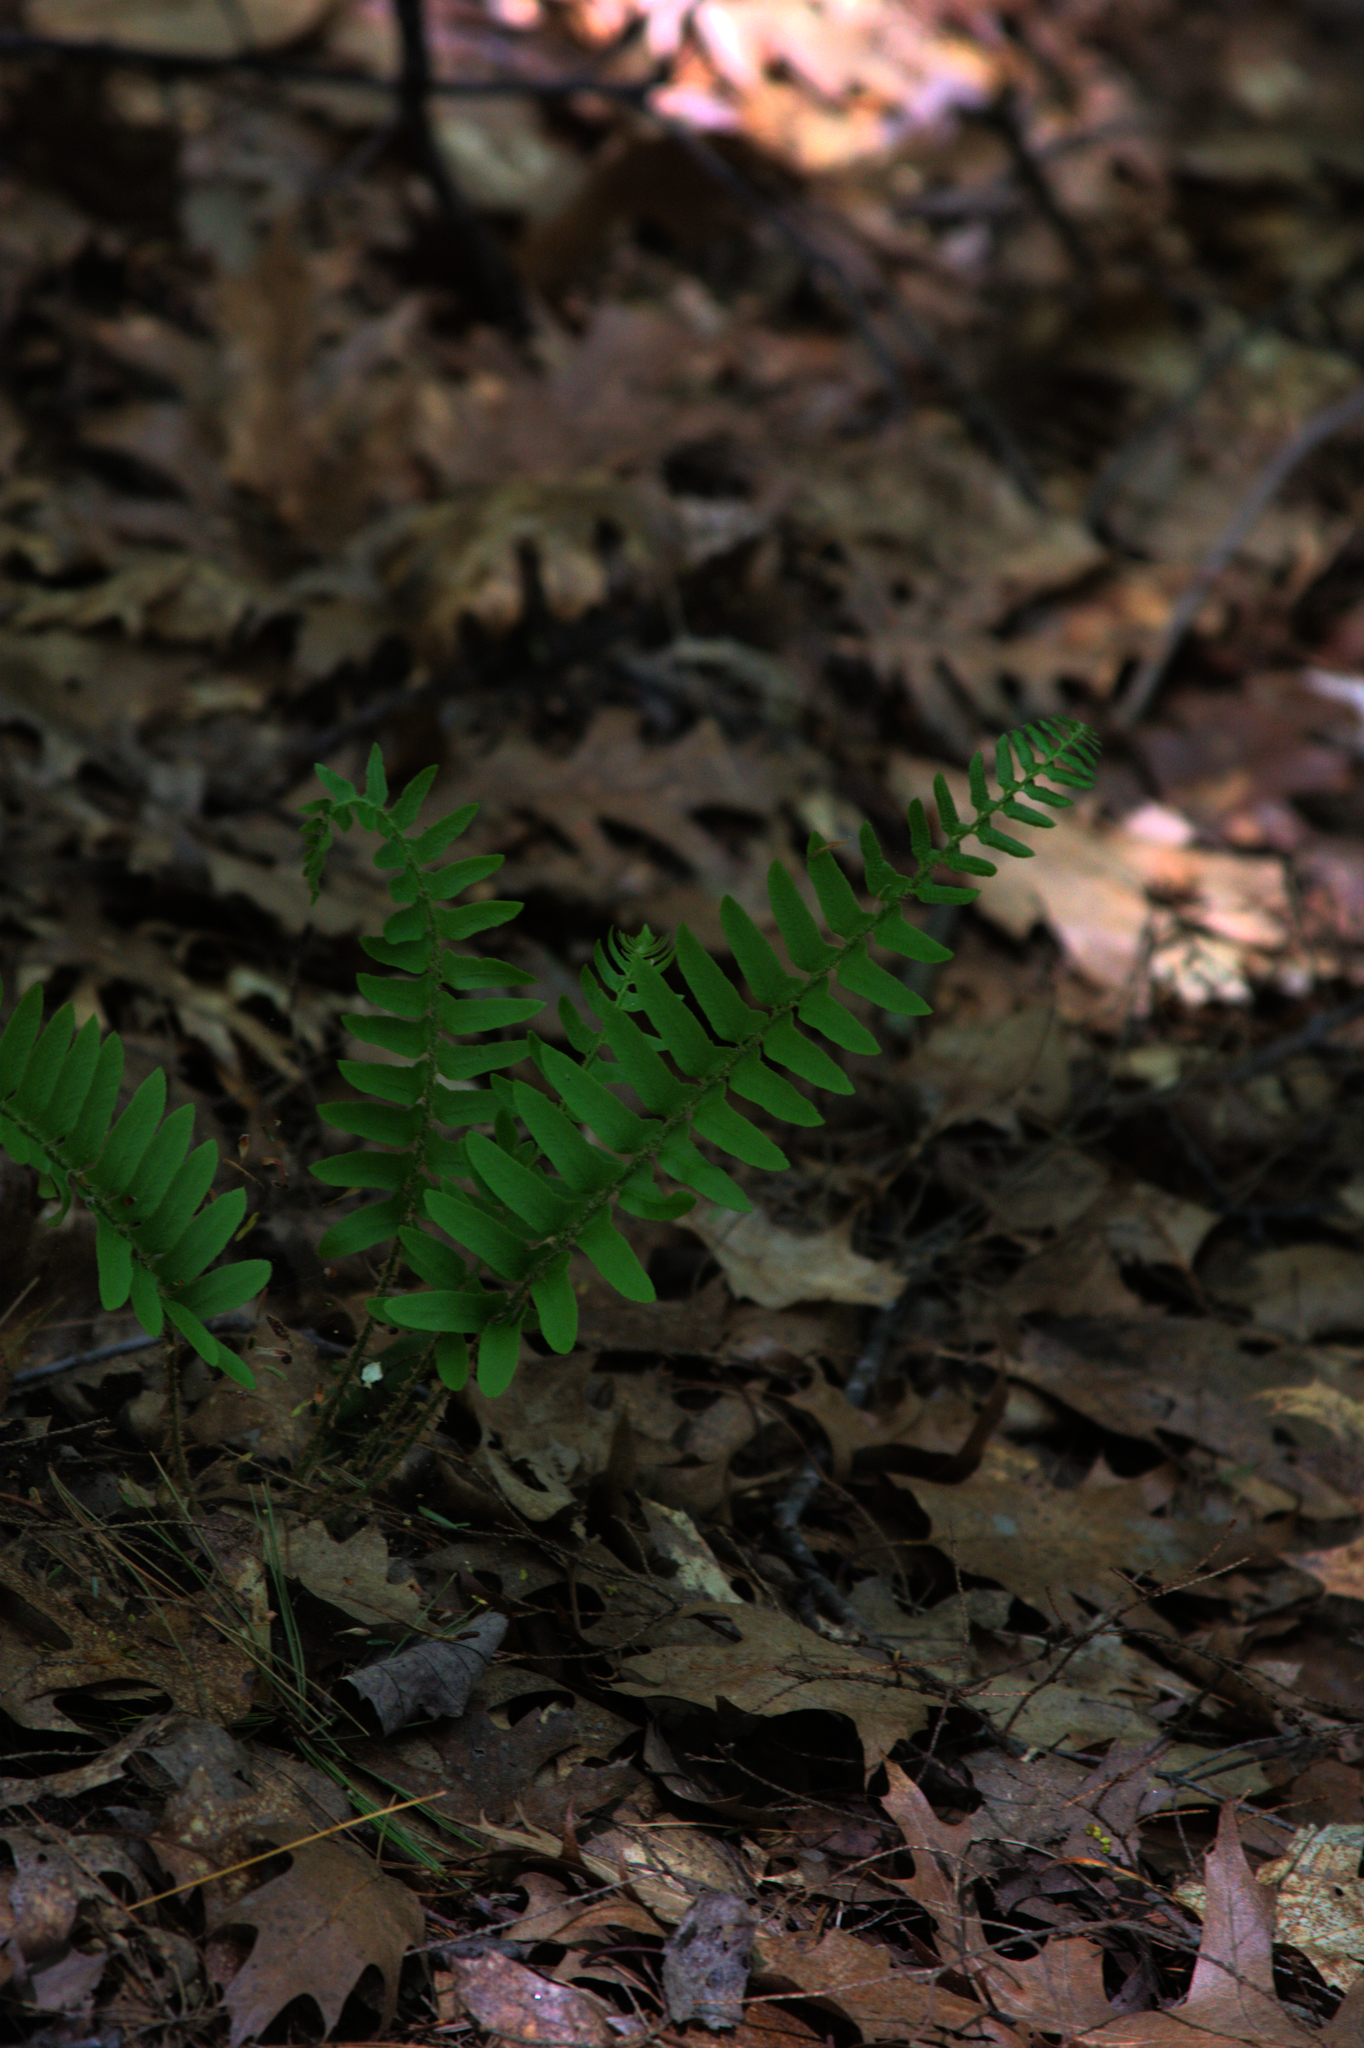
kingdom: Plantae
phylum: Tracheophyta
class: Polypodiopsida
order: Polypodiales
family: Dryopteridaceae
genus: Polystichum
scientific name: Polystichum acrostichoides
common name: Christmas fern
